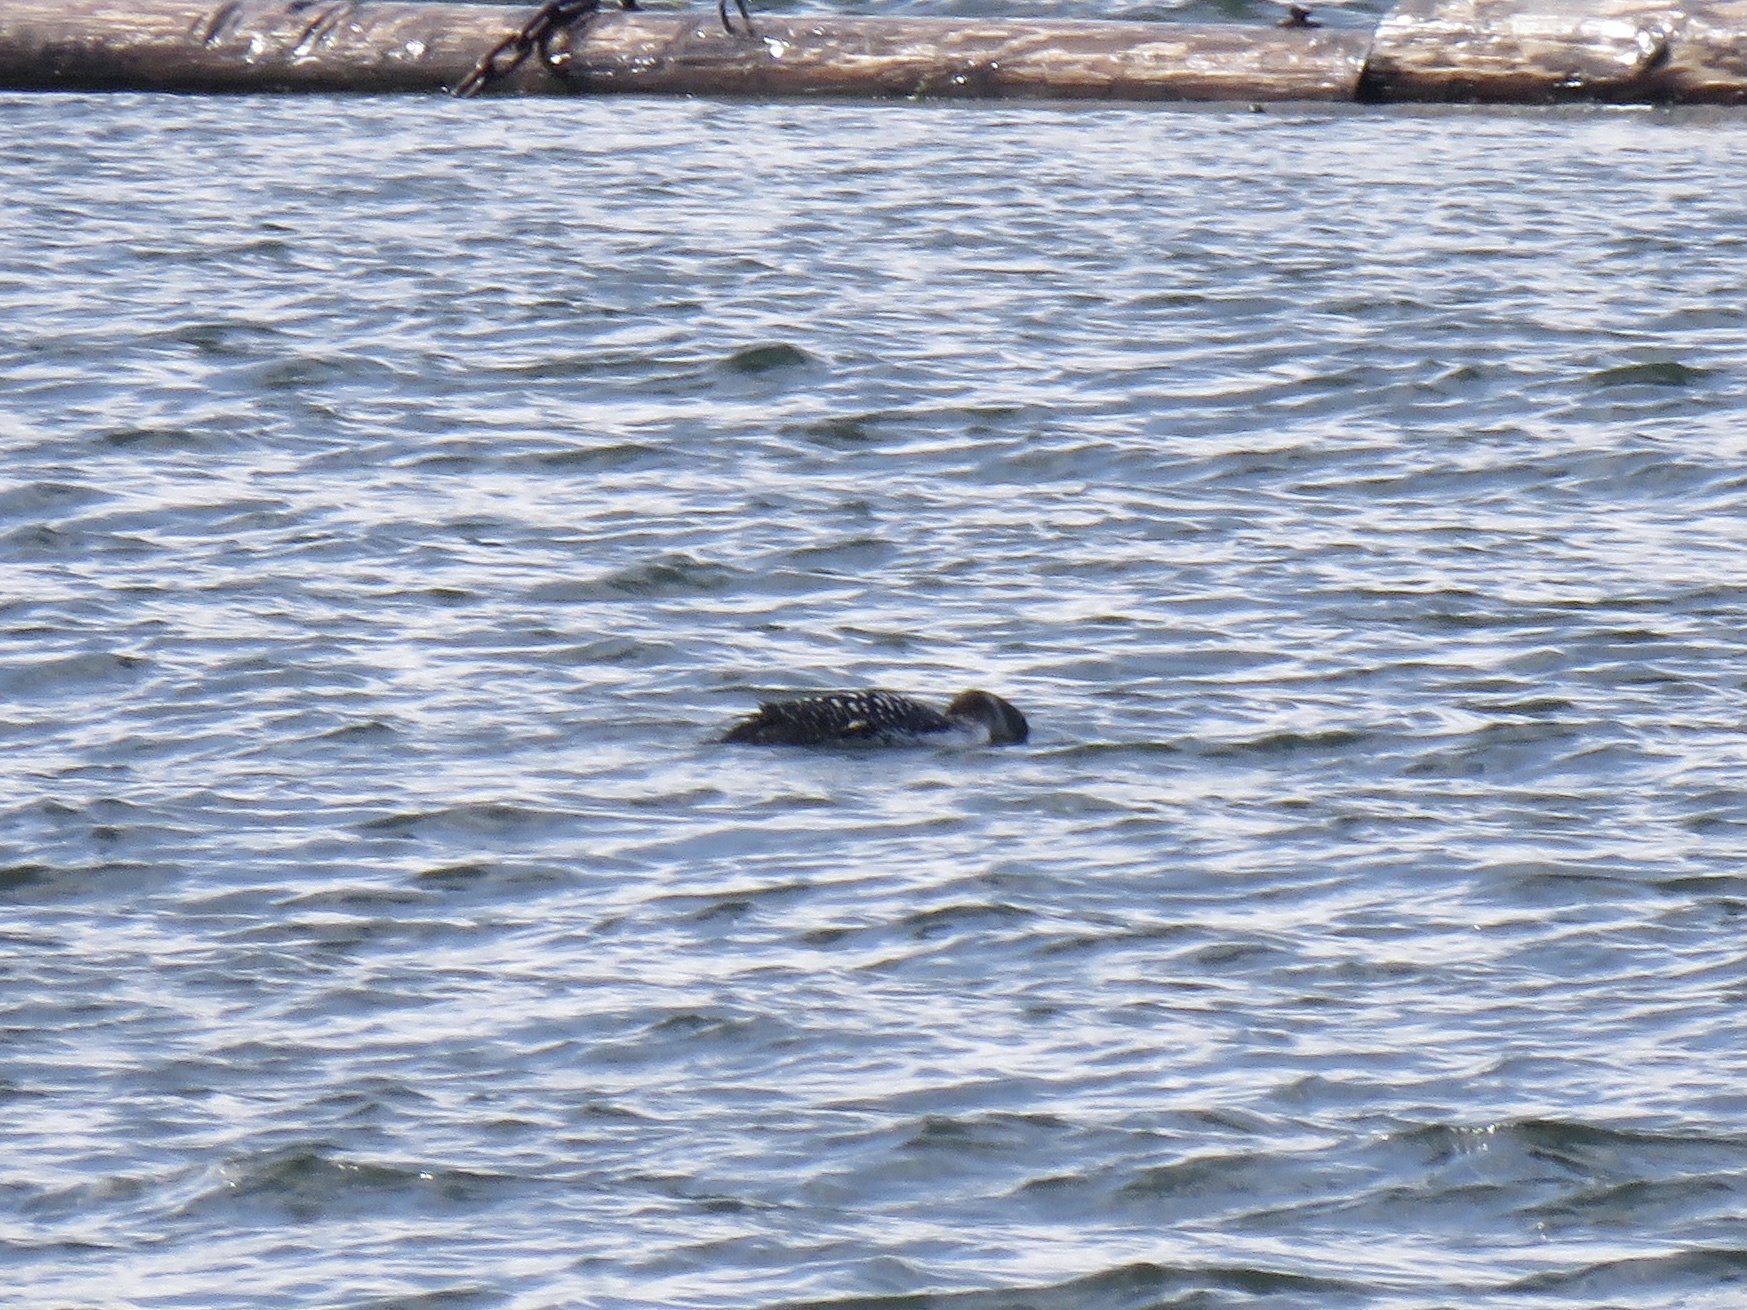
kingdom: Animalia
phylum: Chordata
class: Aves
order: Gaviiformes
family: Gaviidae
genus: Gavia
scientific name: Gavia immer
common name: Common loon
